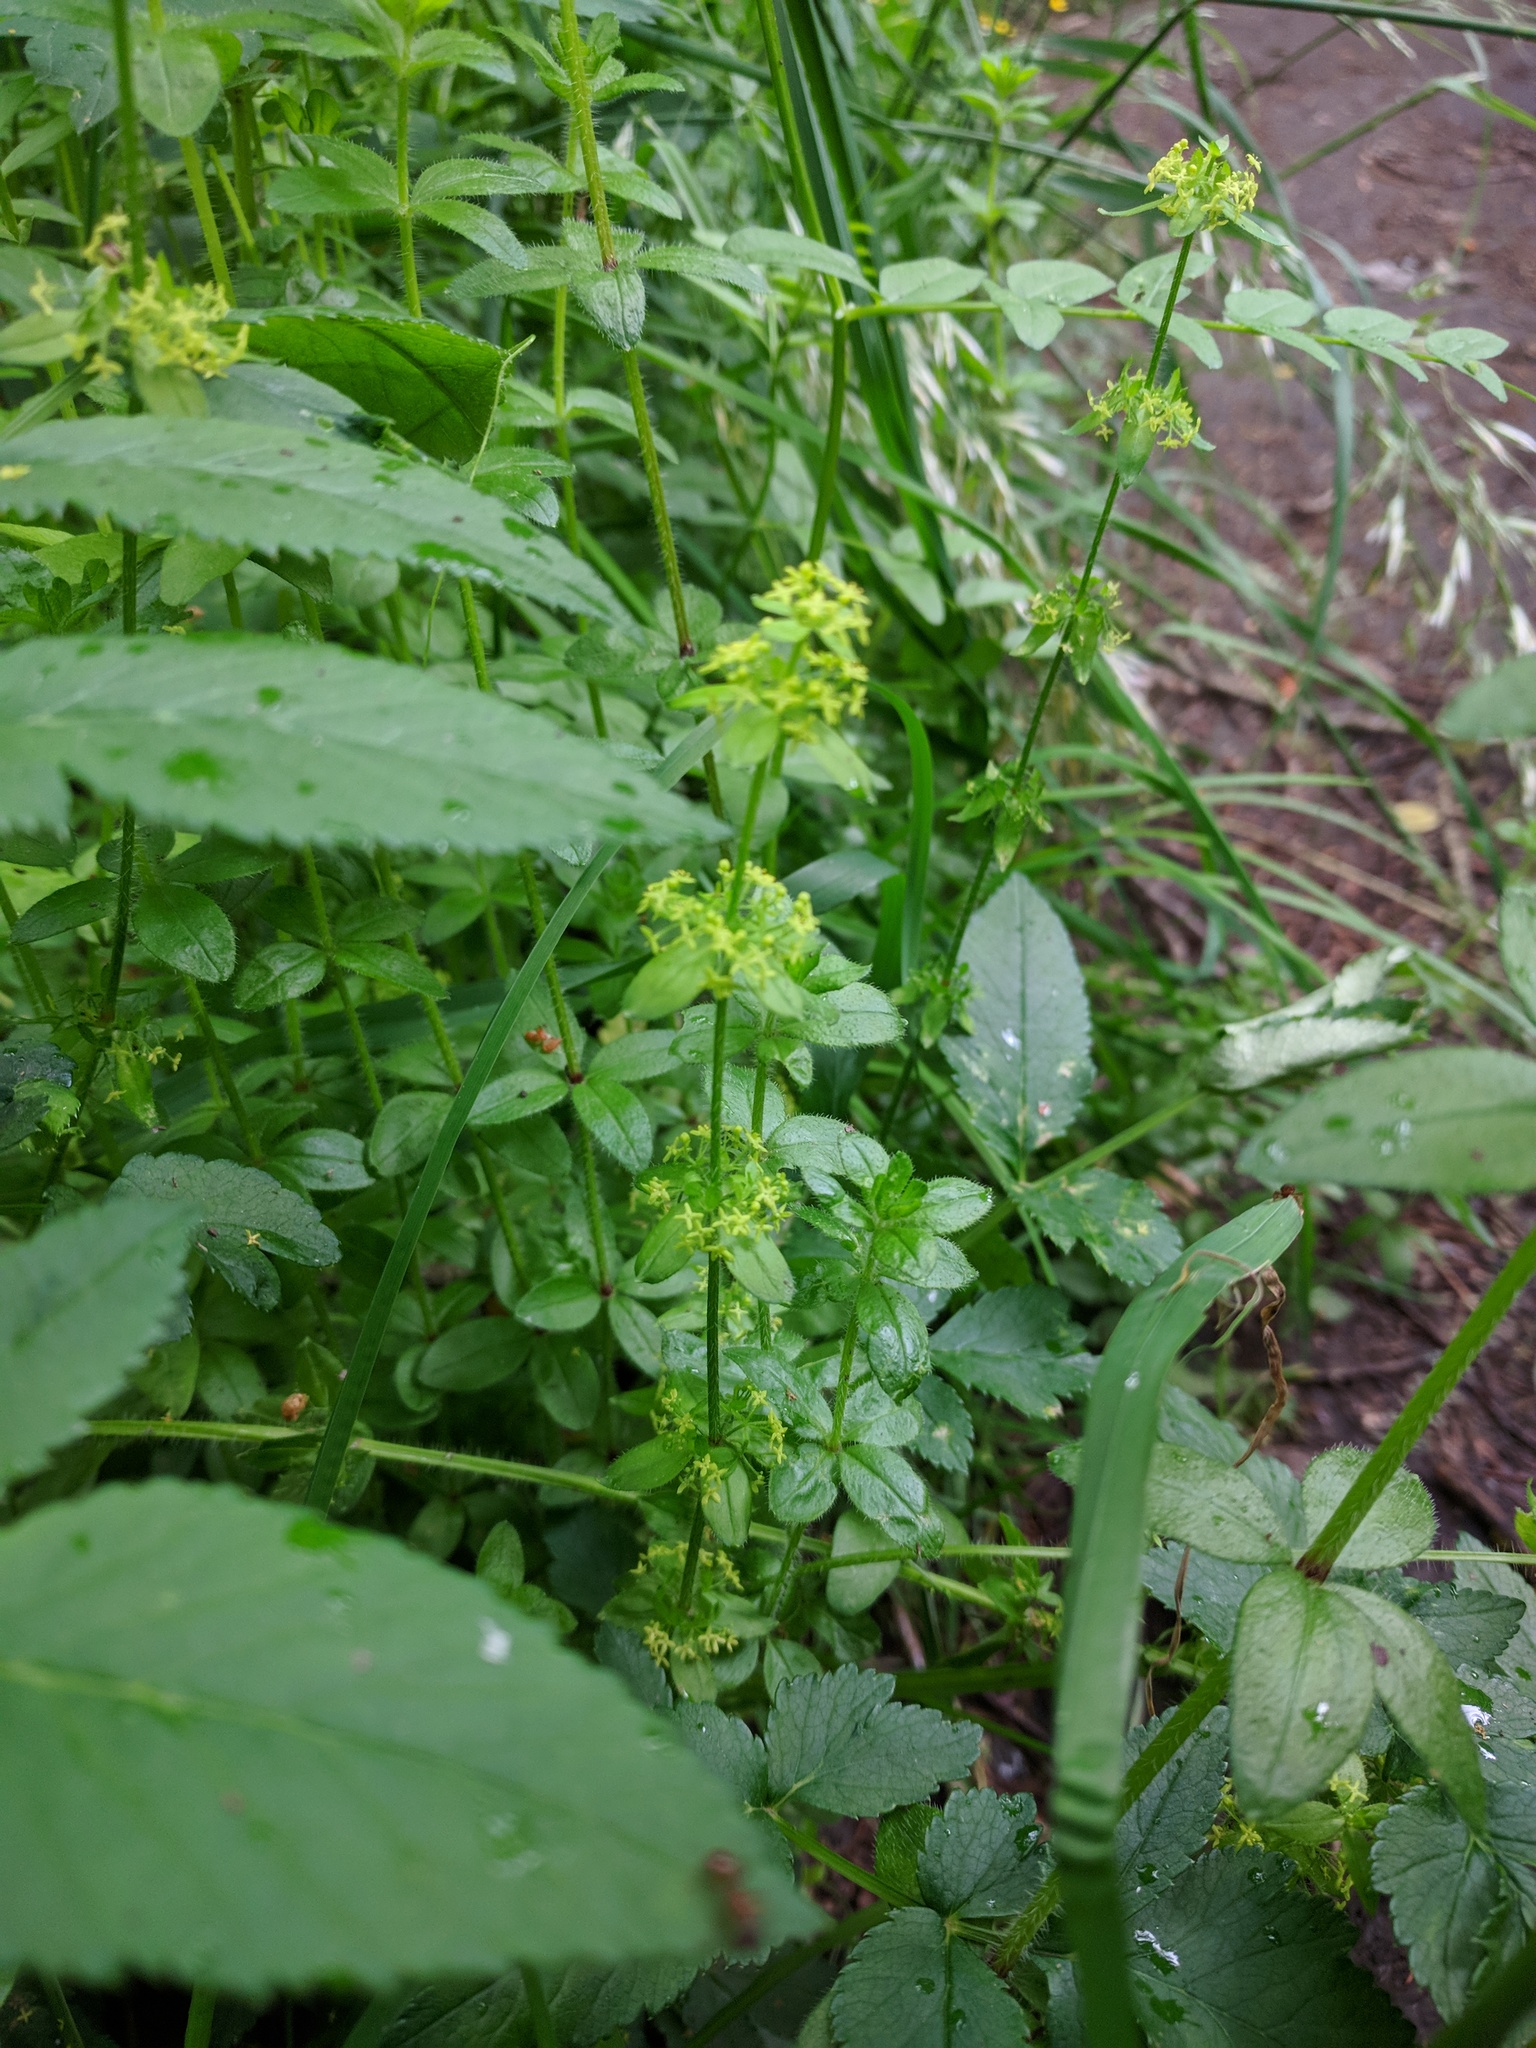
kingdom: Plantae
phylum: Tracheophyta
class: Magnoliopsida
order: Gentianales
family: Rubiaceae
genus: Cruciata
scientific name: Cruciata laevipes
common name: Crosswort
